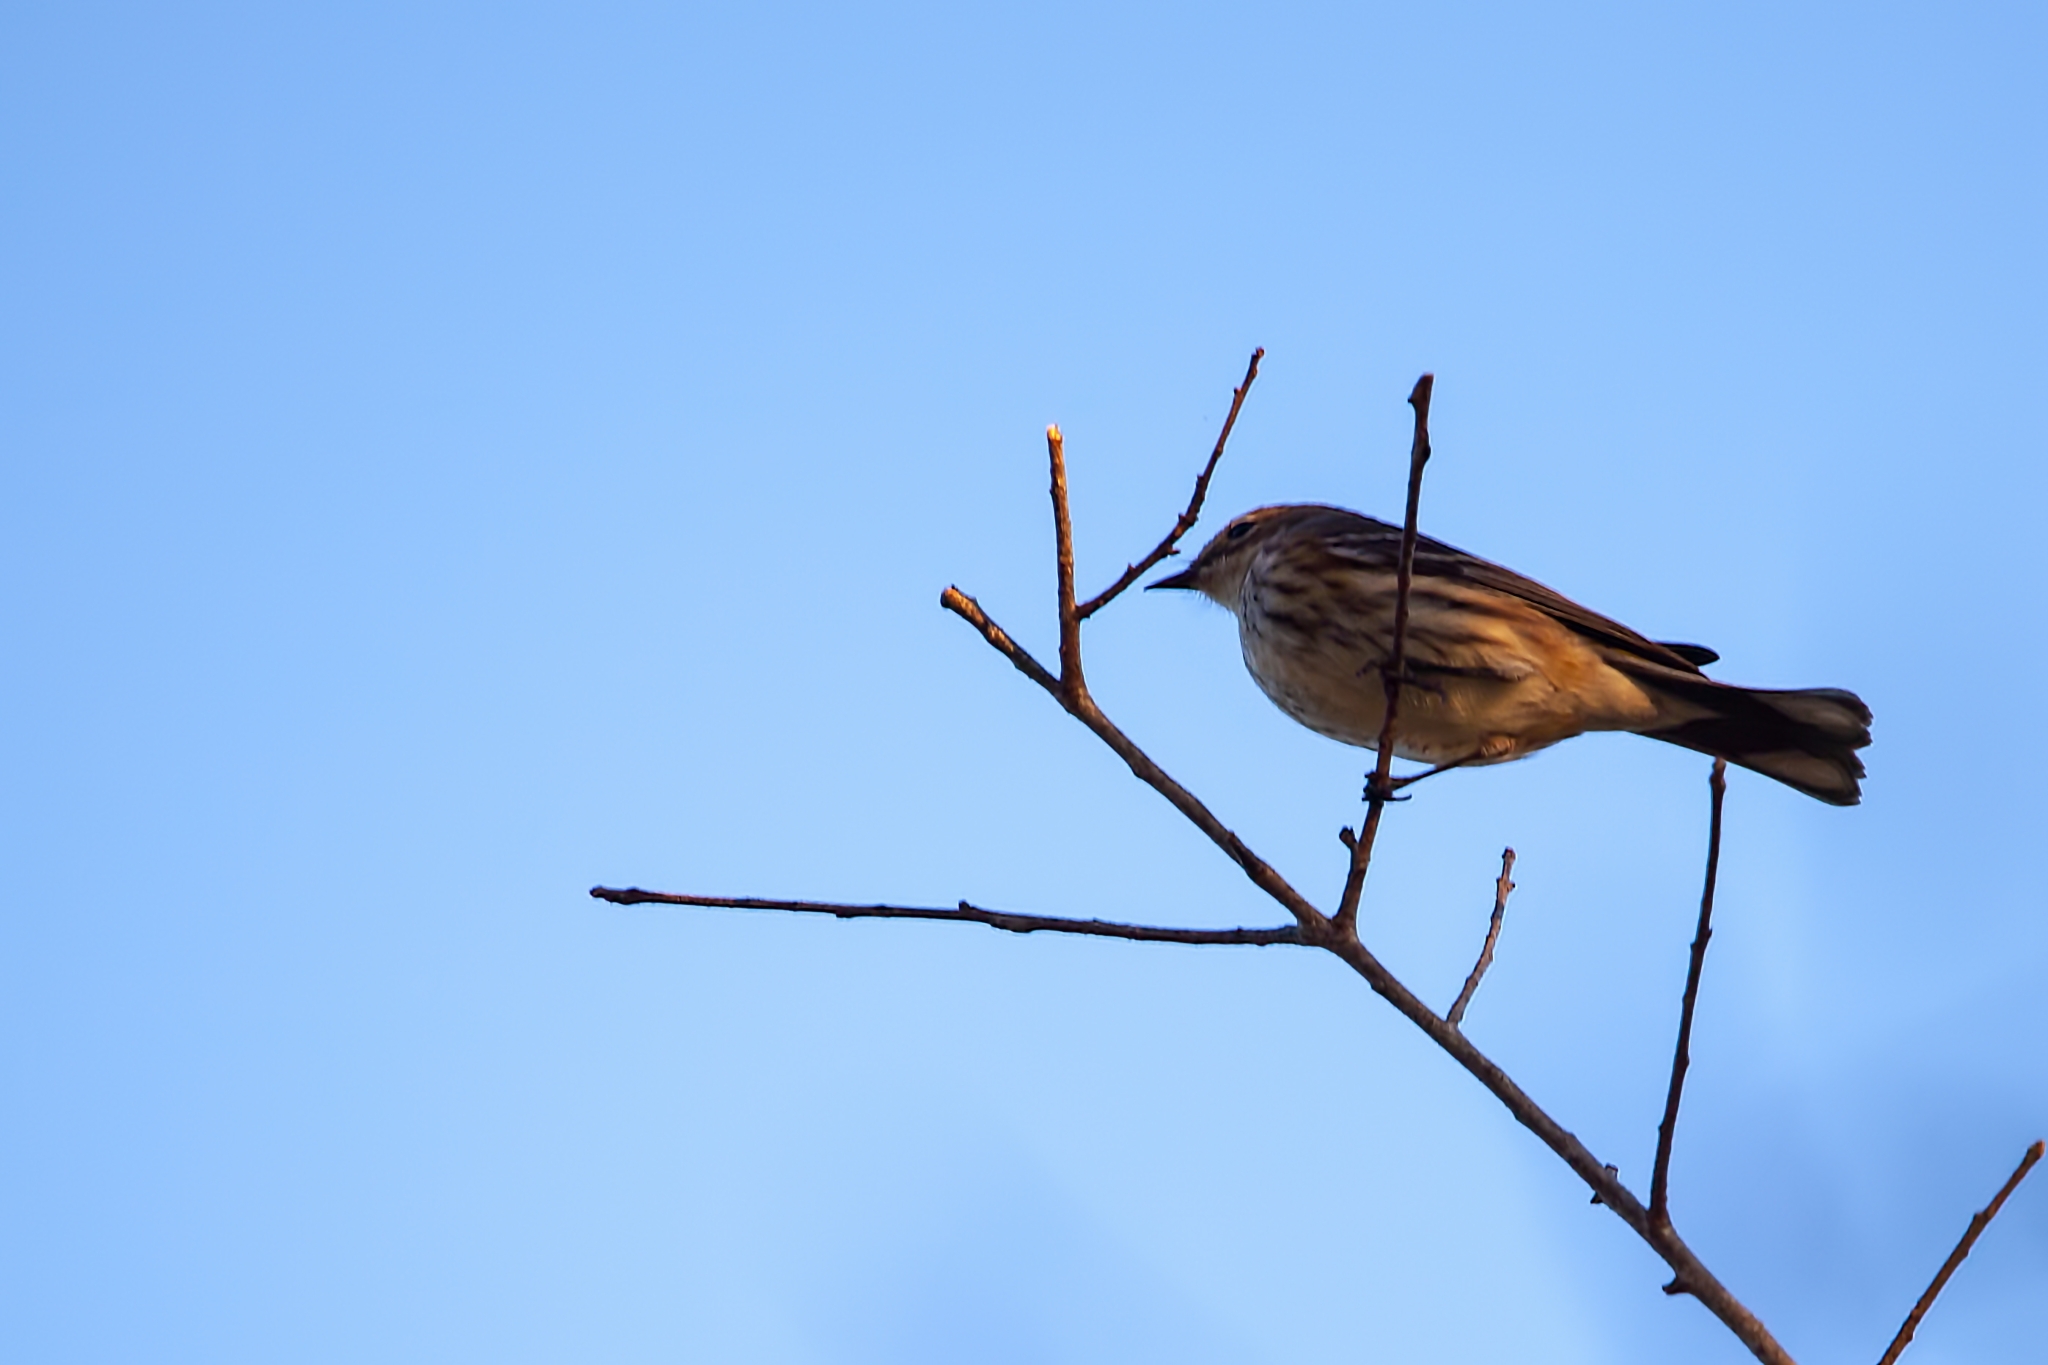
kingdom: Animalia
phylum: Chordata
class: Aves
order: Passeriformes
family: Parulidae
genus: Setophaga
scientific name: Setophaga coronata
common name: Myrtle warbler
